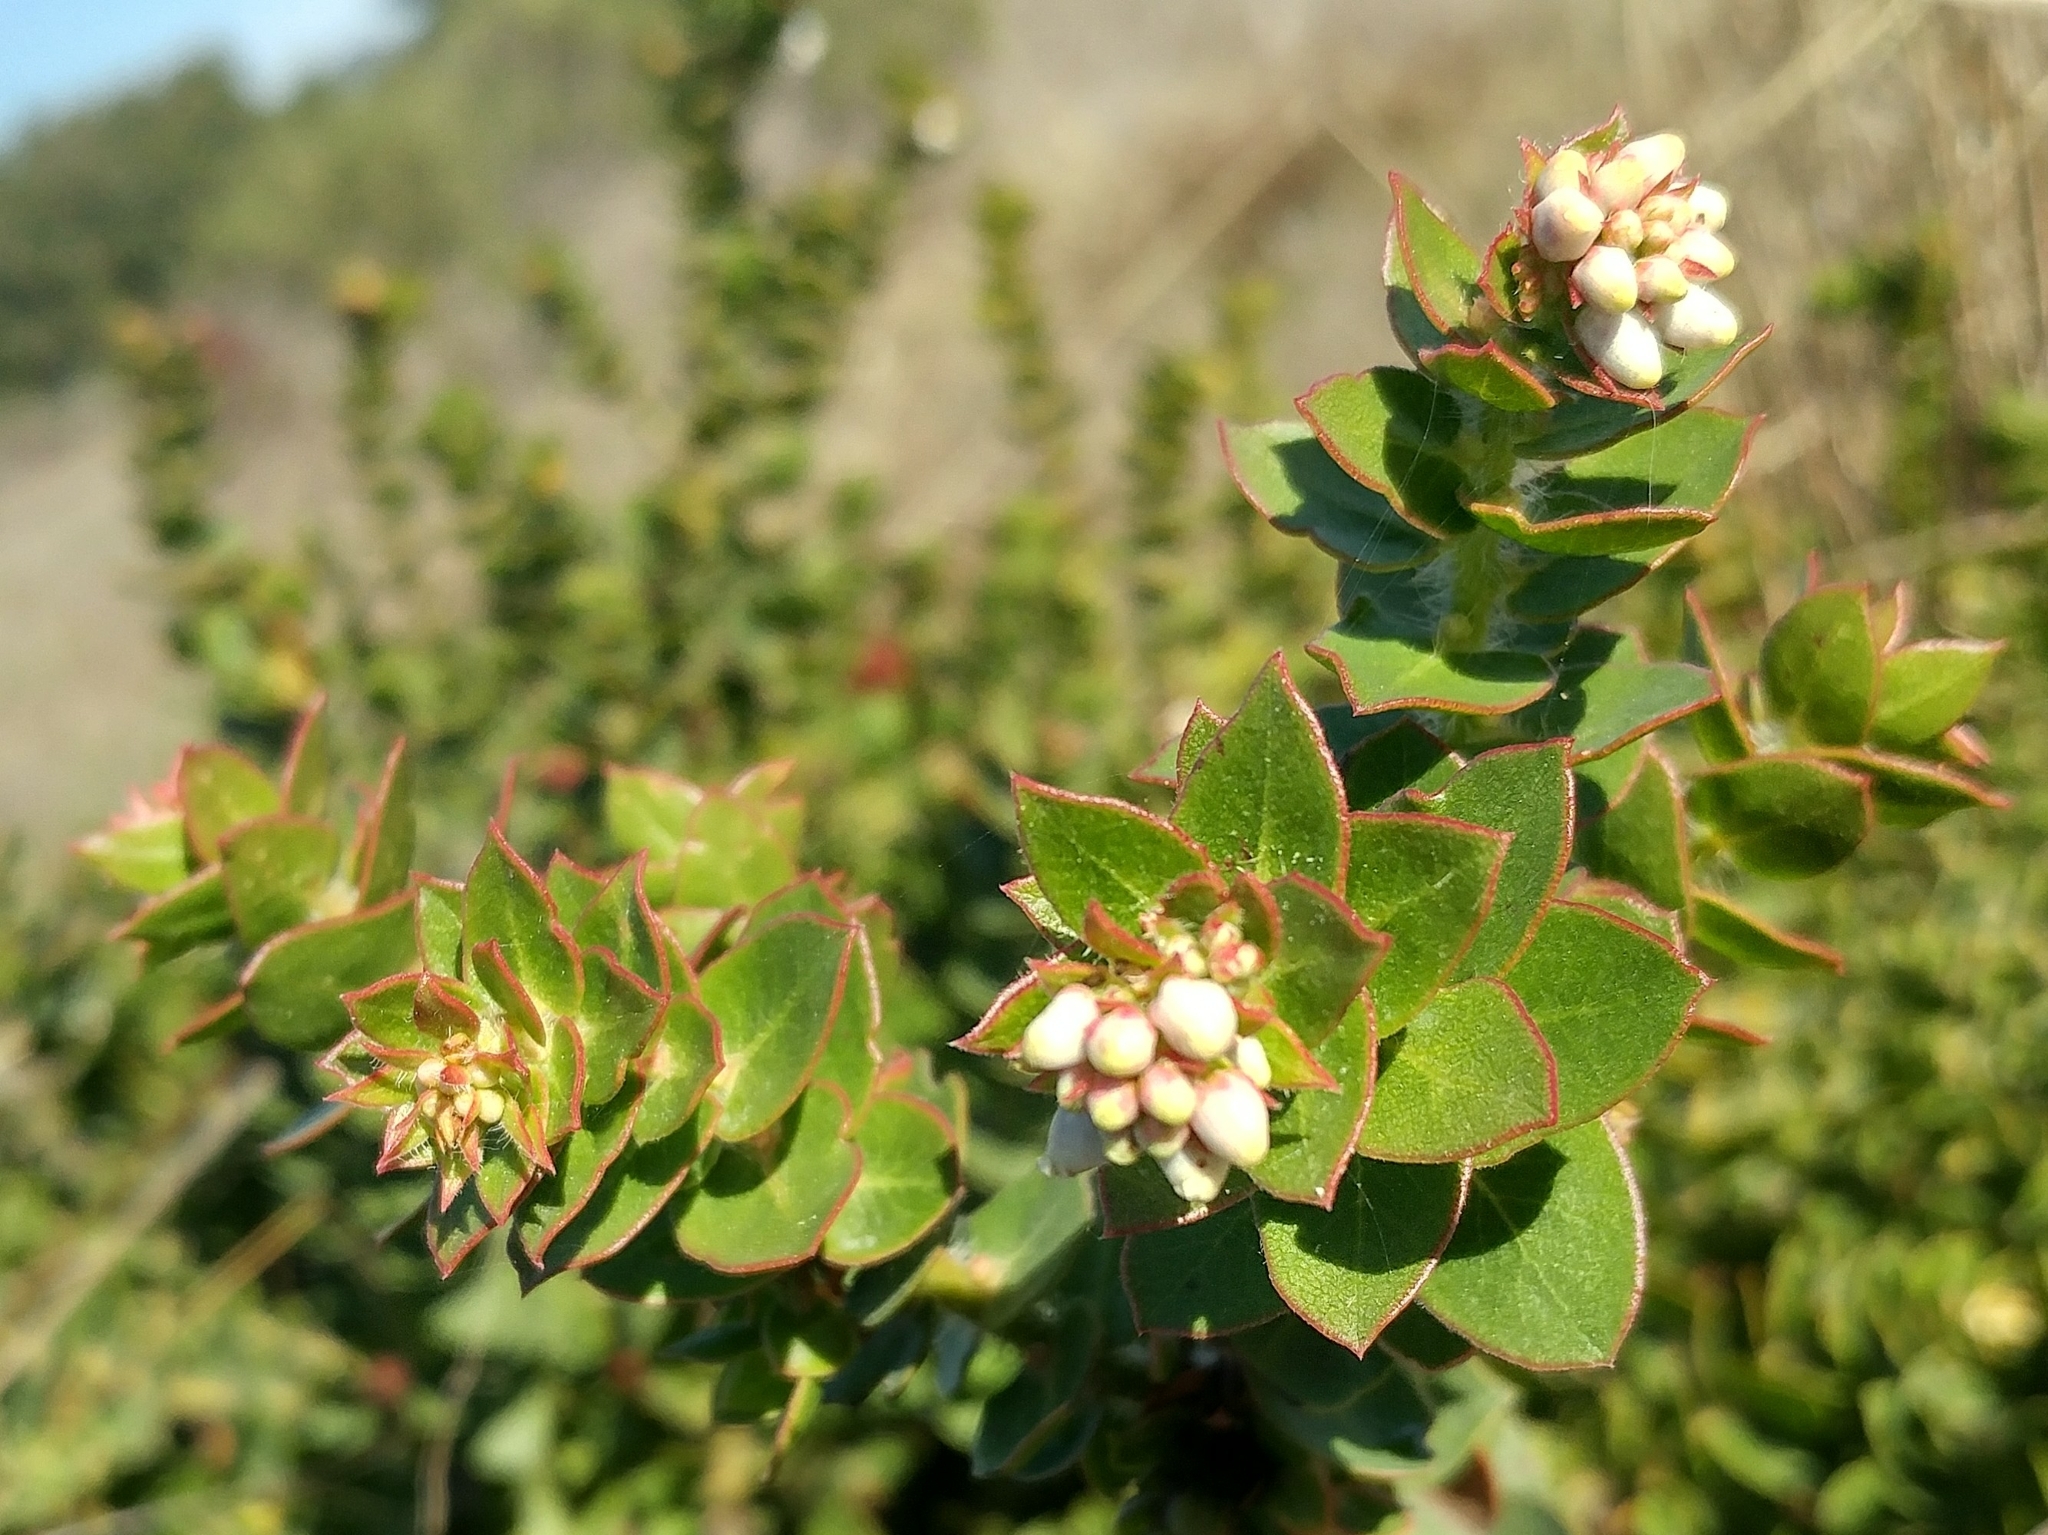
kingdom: Plantae
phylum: Tracheophyta
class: Magnoliopsida
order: Ericales
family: Ericaceae
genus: Arctostaphylos
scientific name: Arctostaphylos purissima
